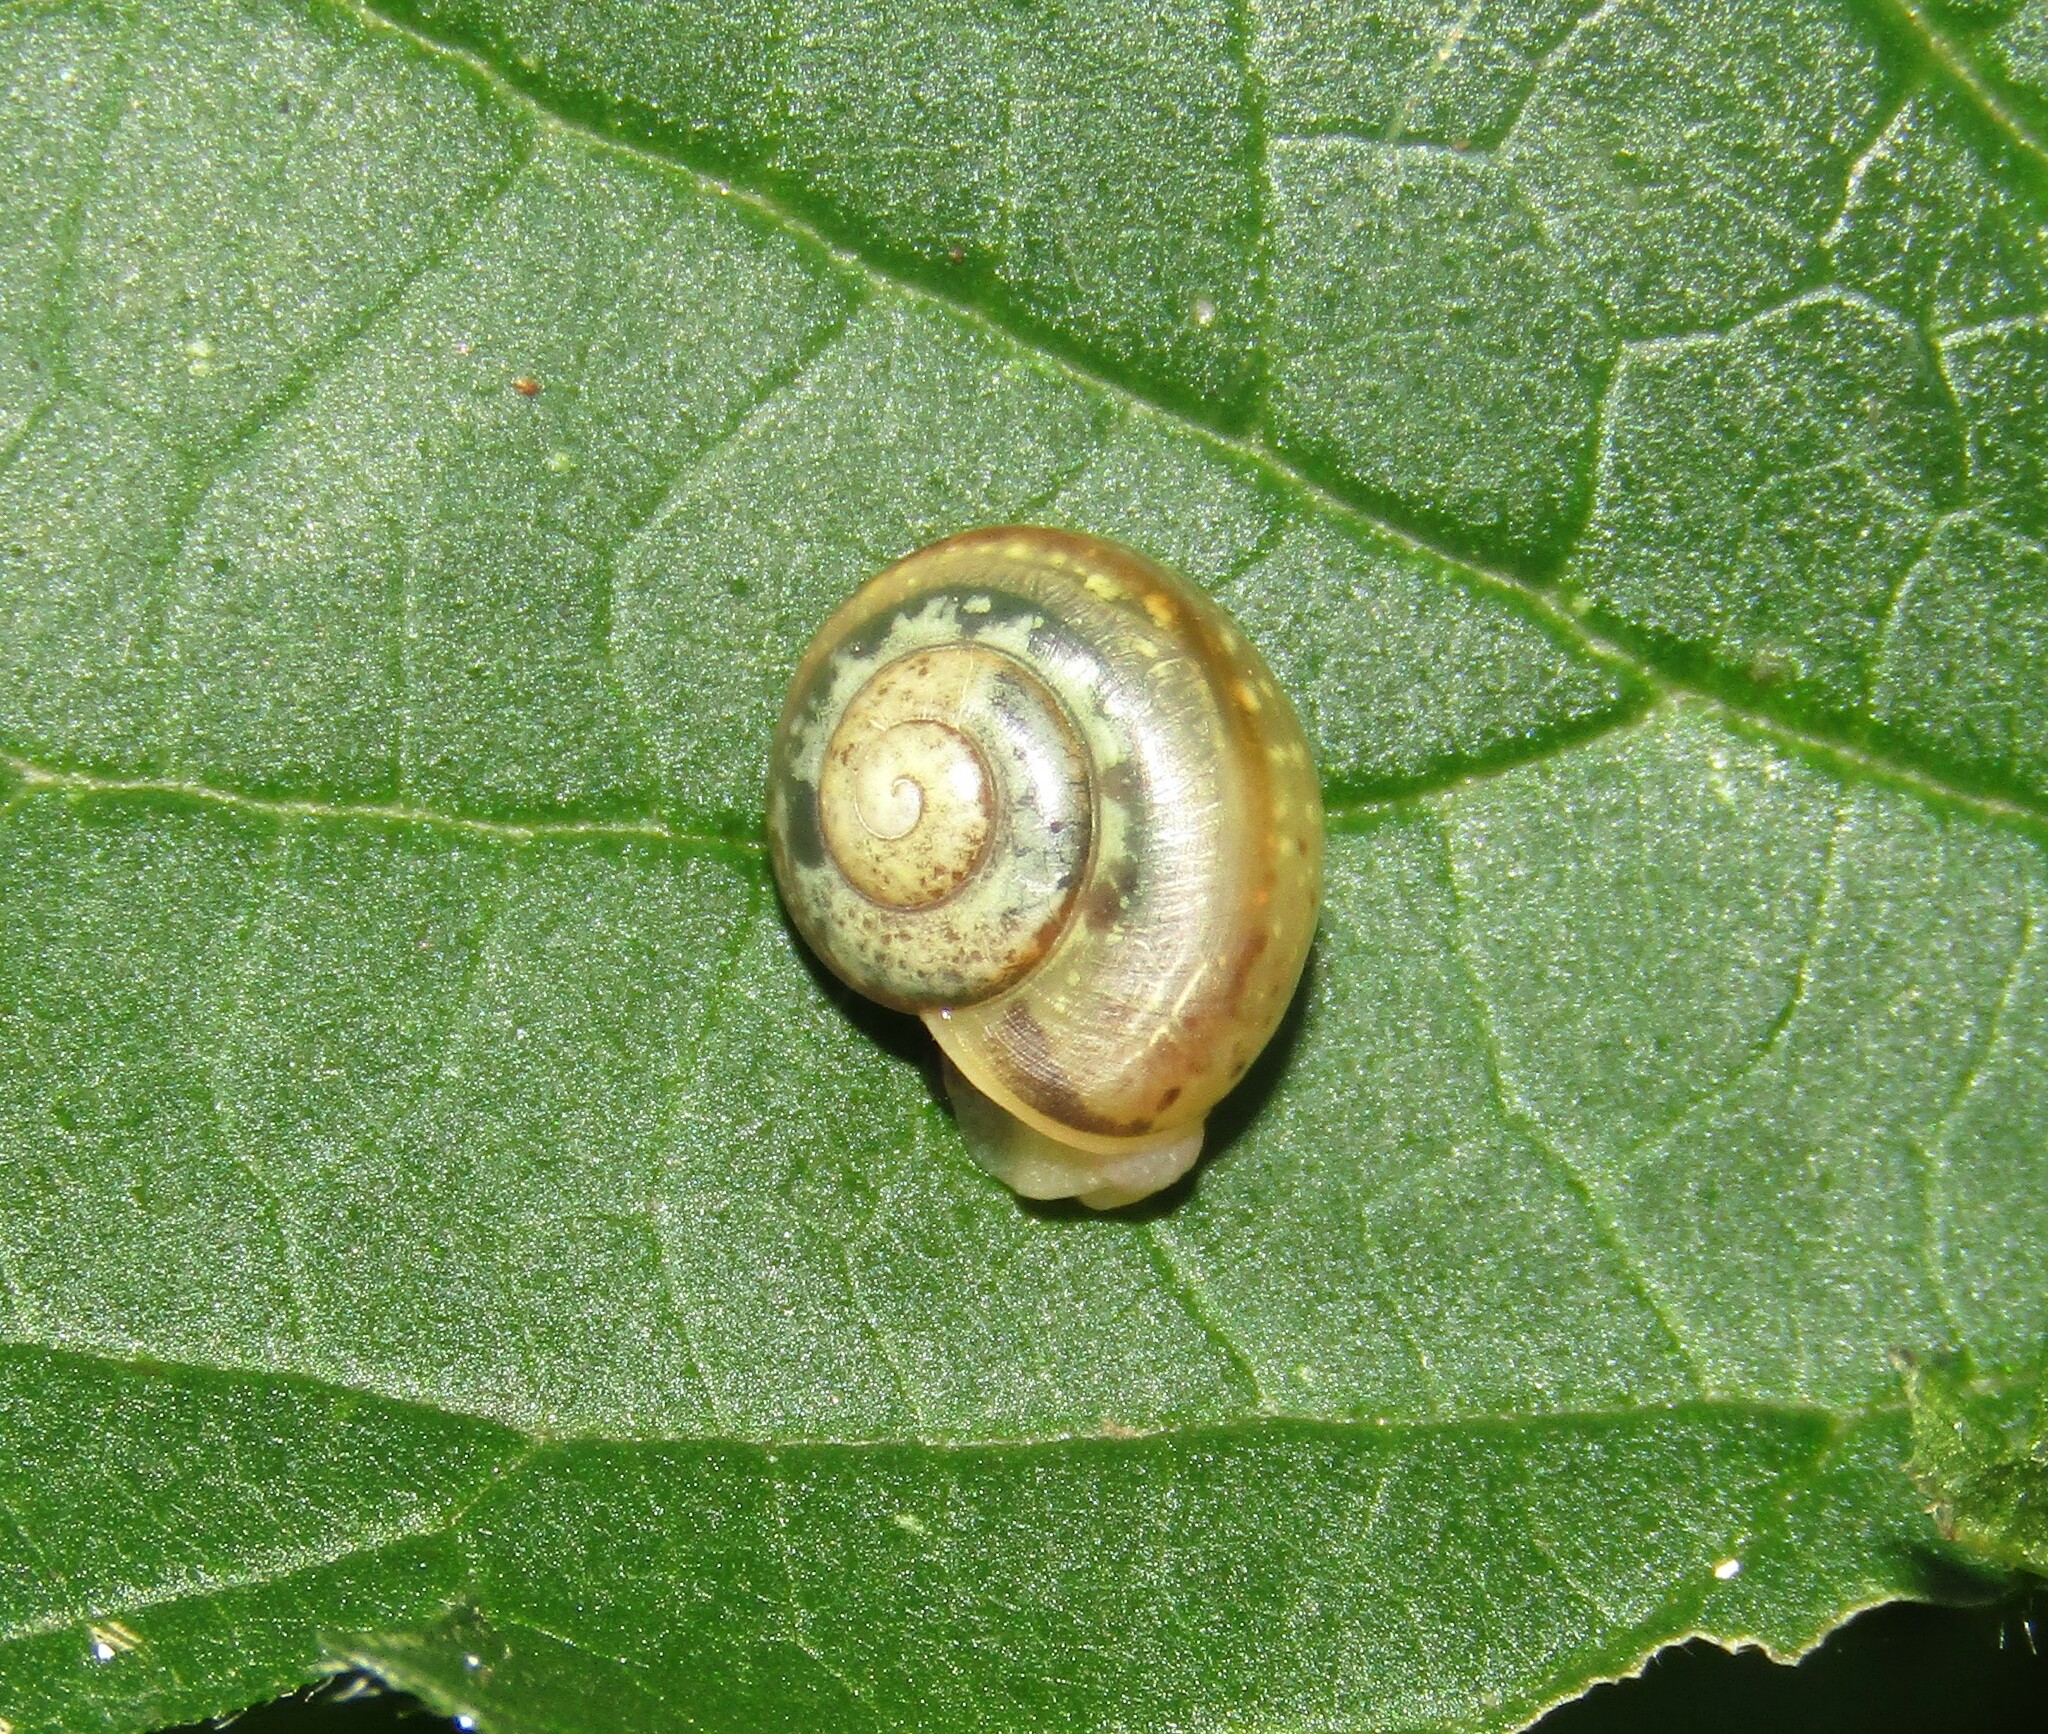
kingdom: Animalia
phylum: Mollusca
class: Gastropoda
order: Stylommatophora
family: Camaenidae
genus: Fruticicola
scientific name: Fruticicola fruticum
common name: Bush snail
